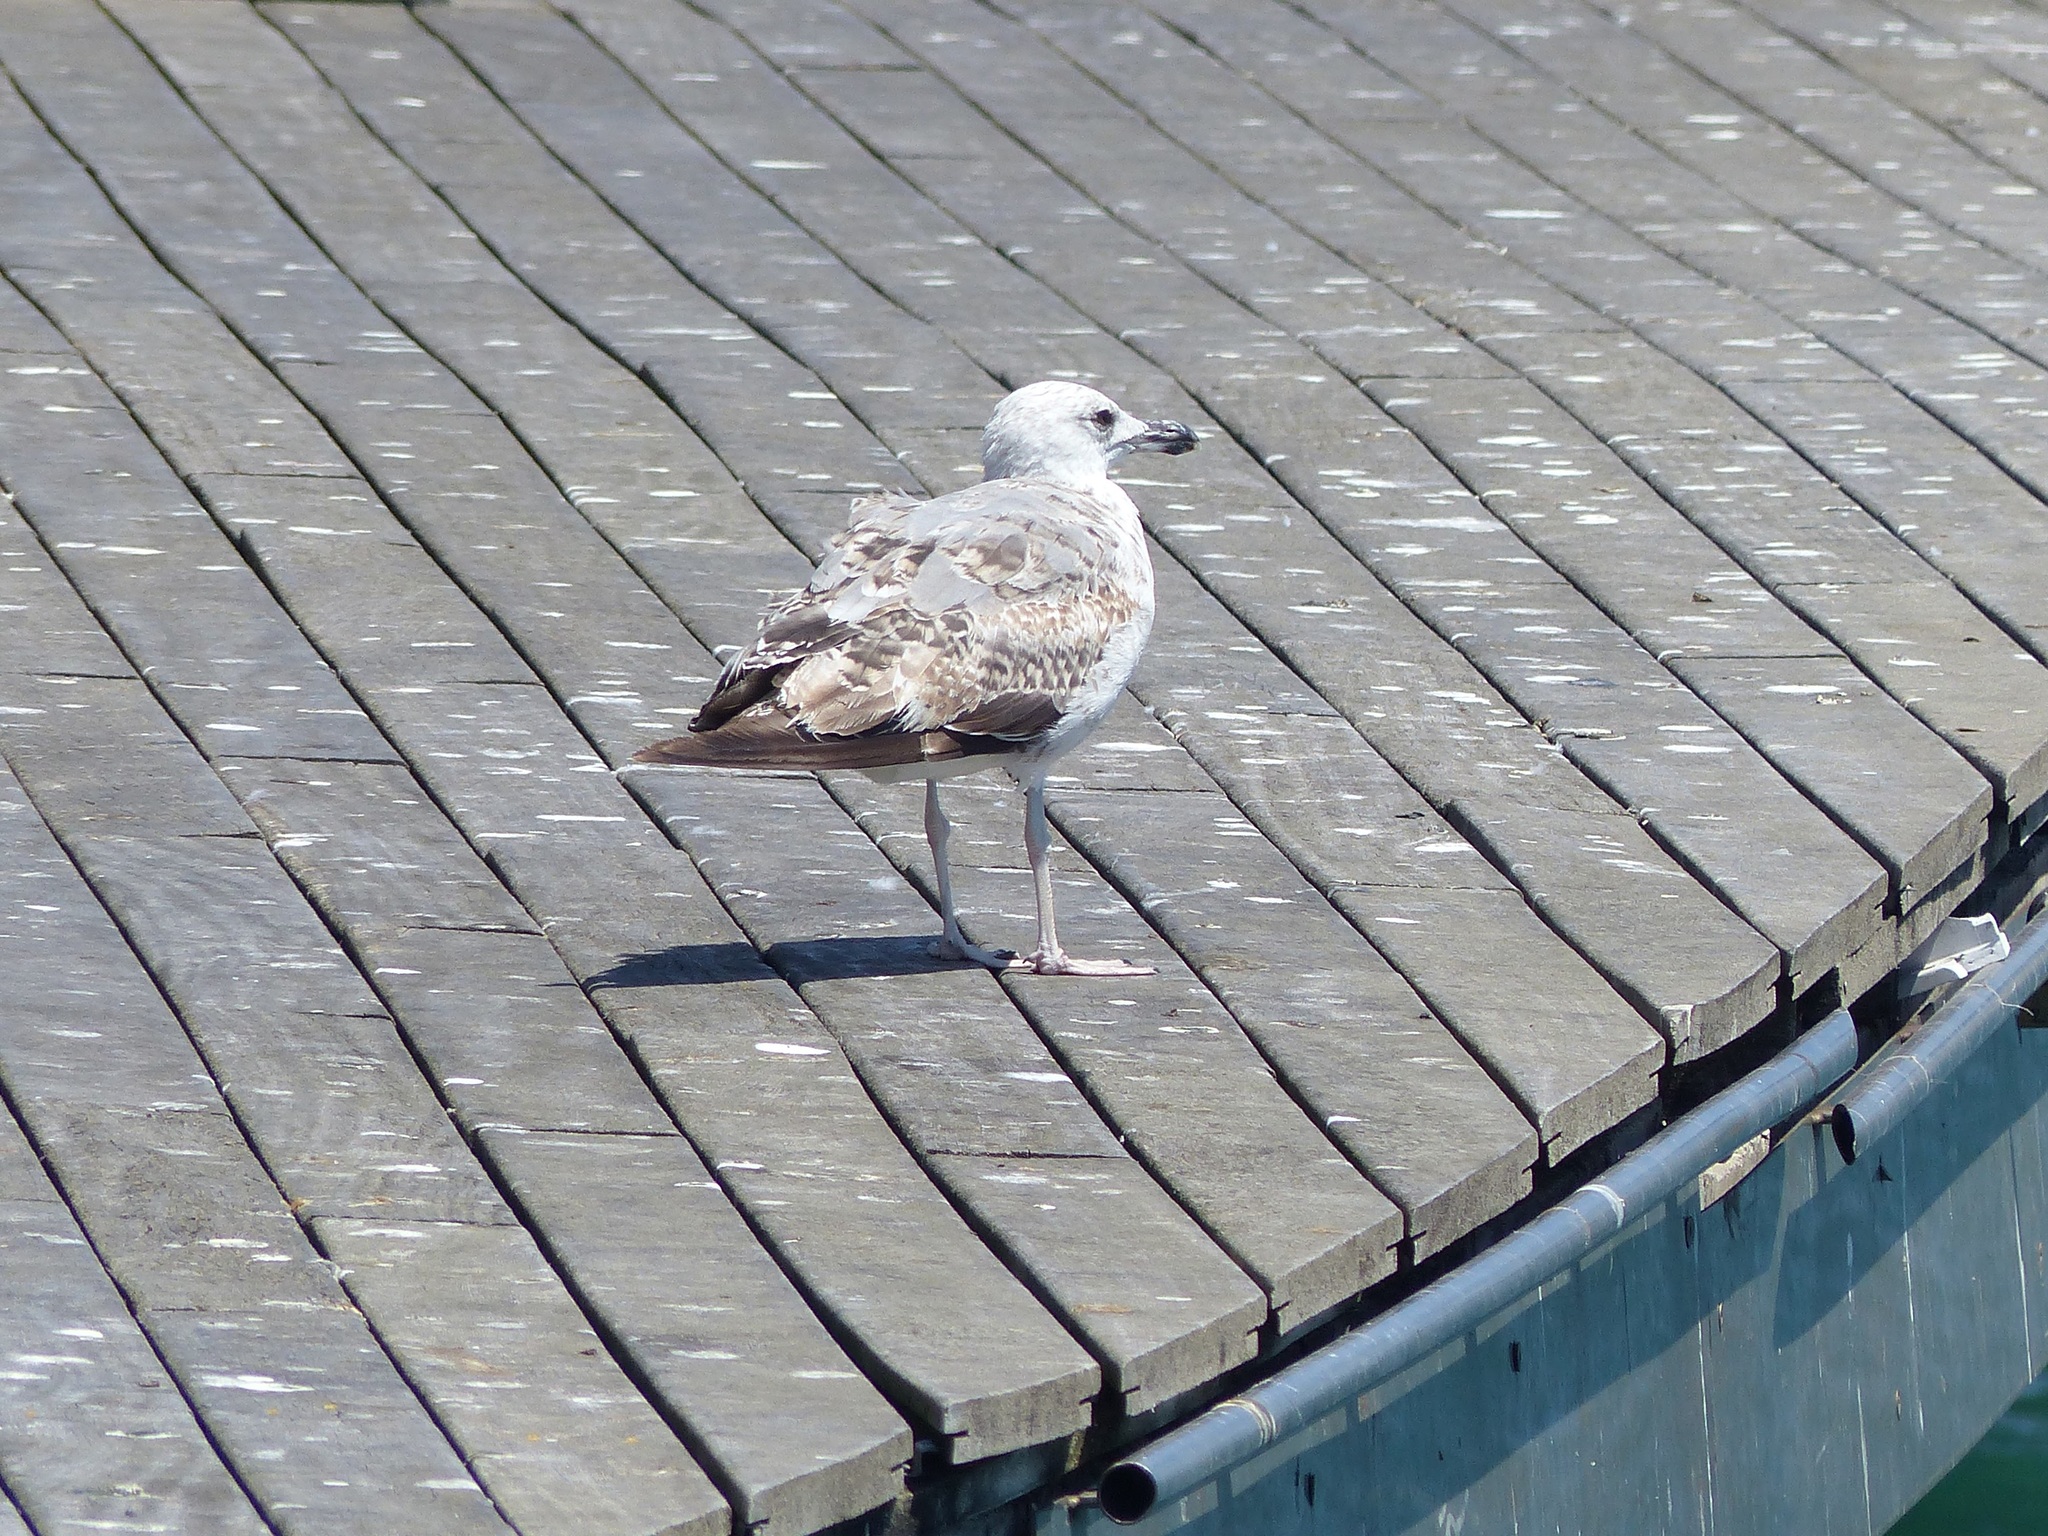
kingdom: Animalia
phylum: Chordata
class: Aves
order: Charadriiformes
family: Laridae
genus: Larus
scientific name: Larus michahellis
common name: Yellow-legged gull
